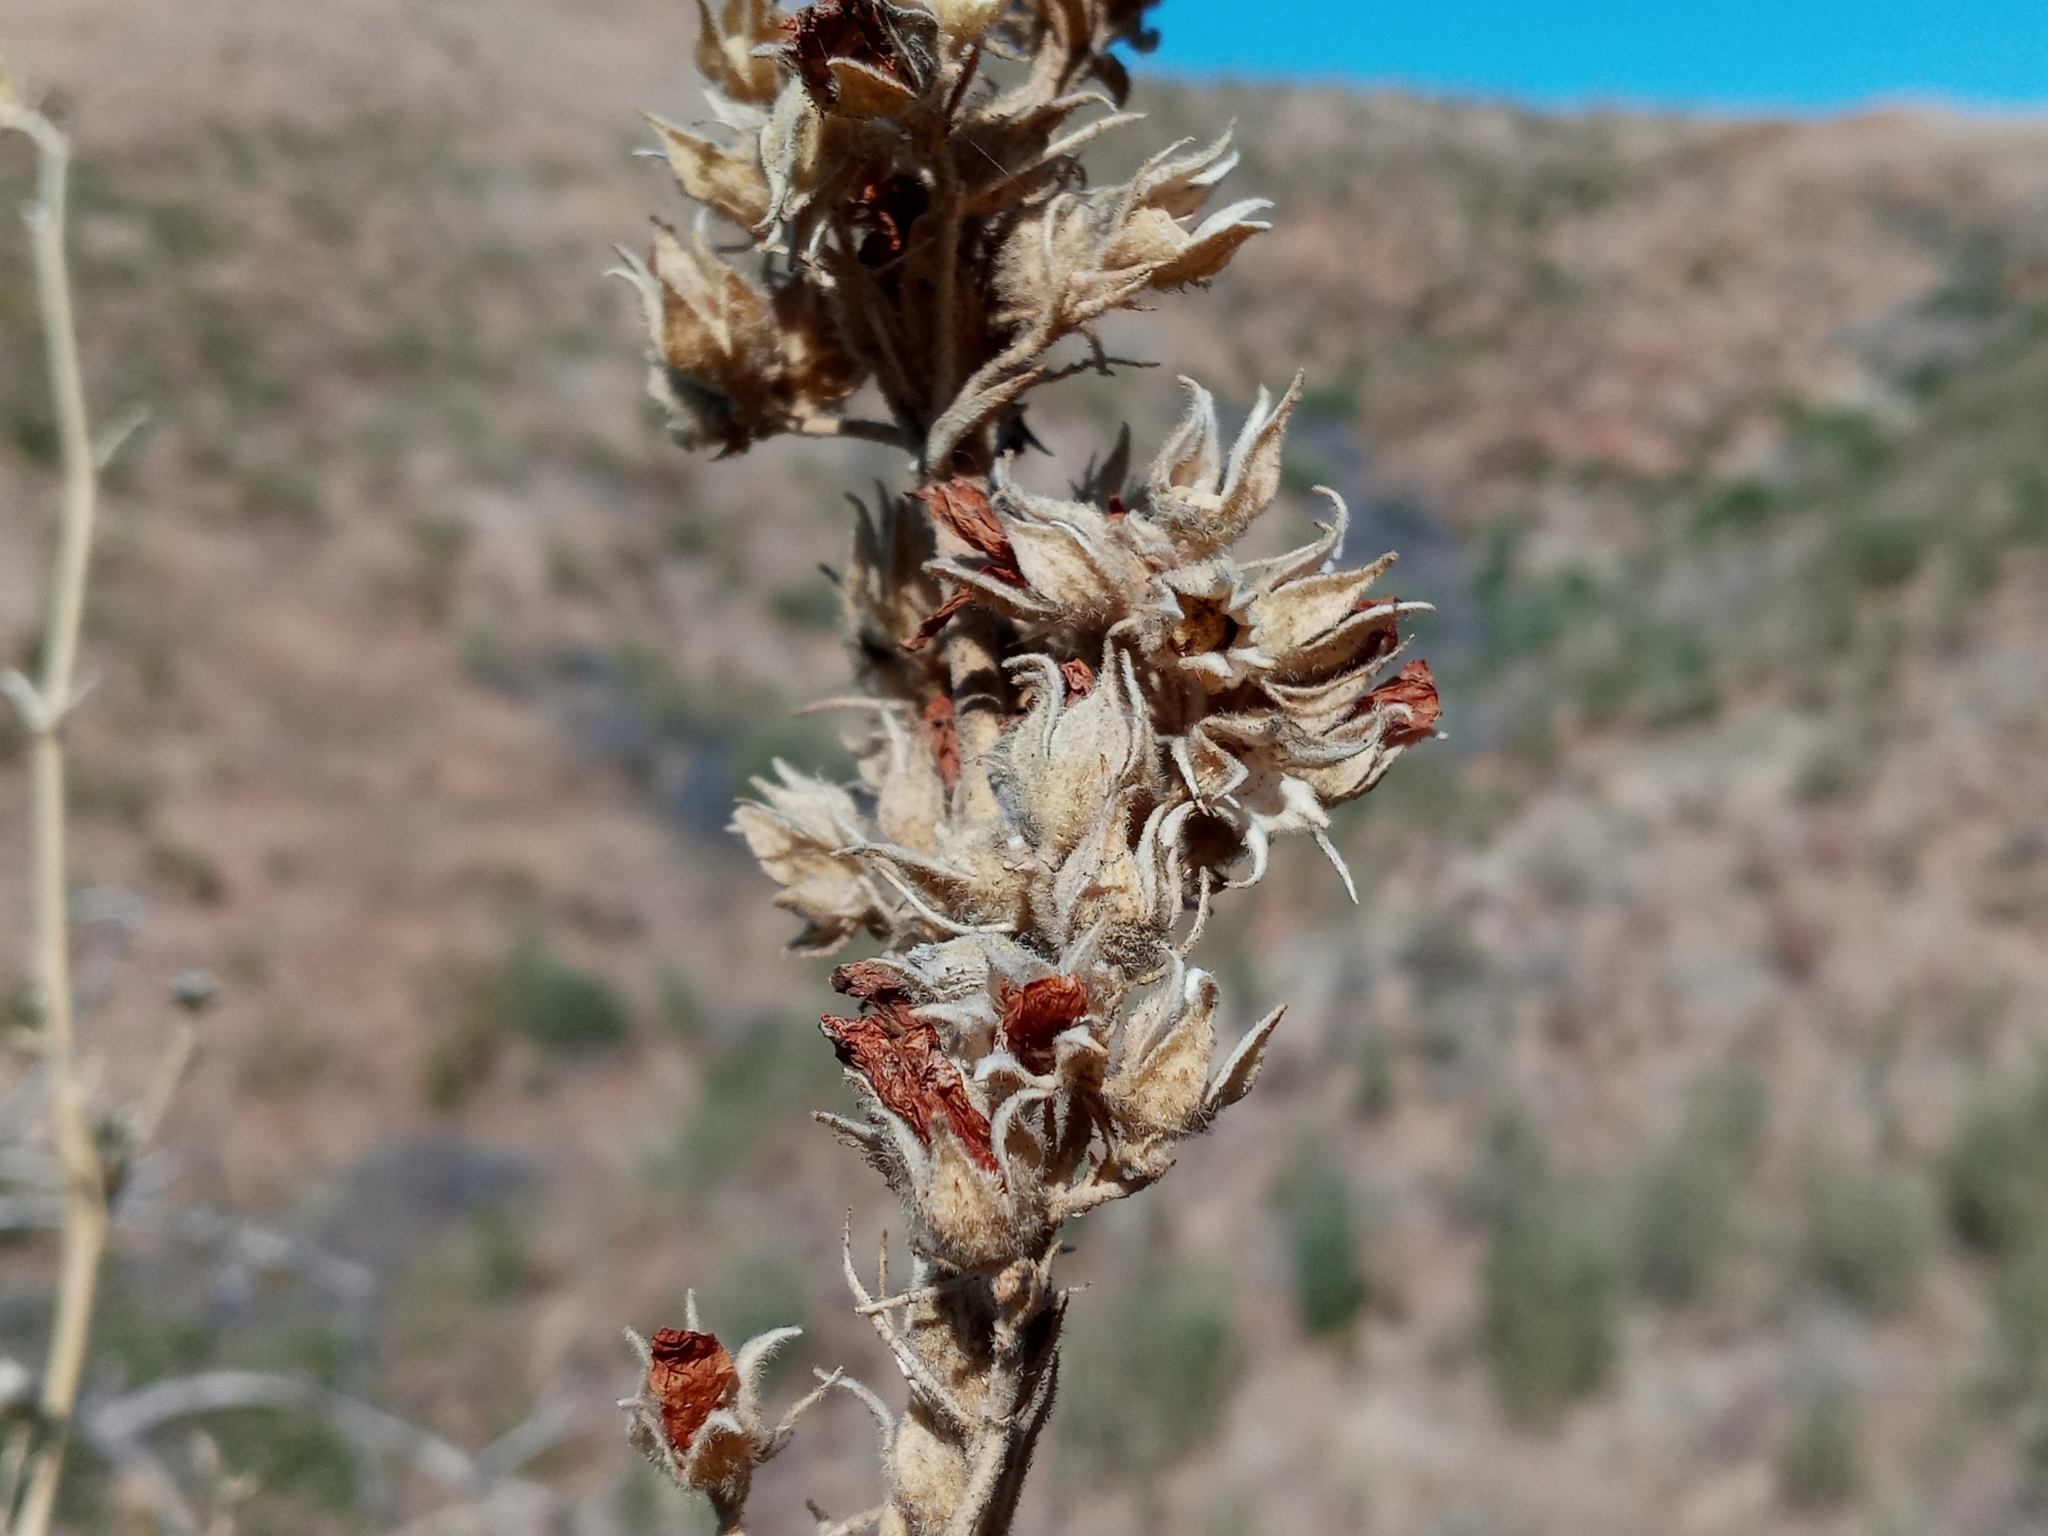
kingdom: Plantae
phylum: Tracheophyta
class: Magnoliopsida
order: Malvales
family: Malvaceae
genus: Malacothamnus
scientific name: Malacothamnus marrubioides
